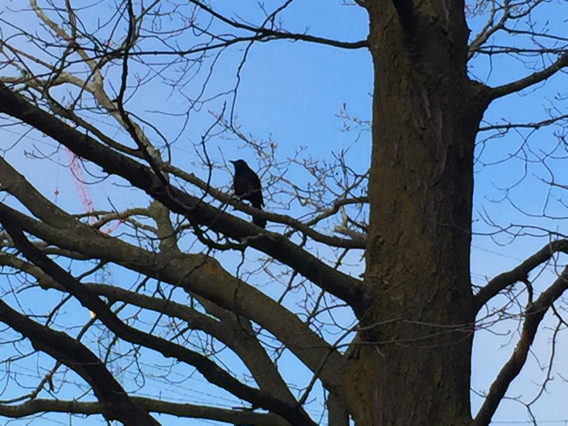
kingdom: Animalia
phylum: Chordata
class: Aves
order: Passeriformes
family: Icteridae
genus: Quiscalus
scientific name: Quiscalus quiscula
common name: Common grackle
